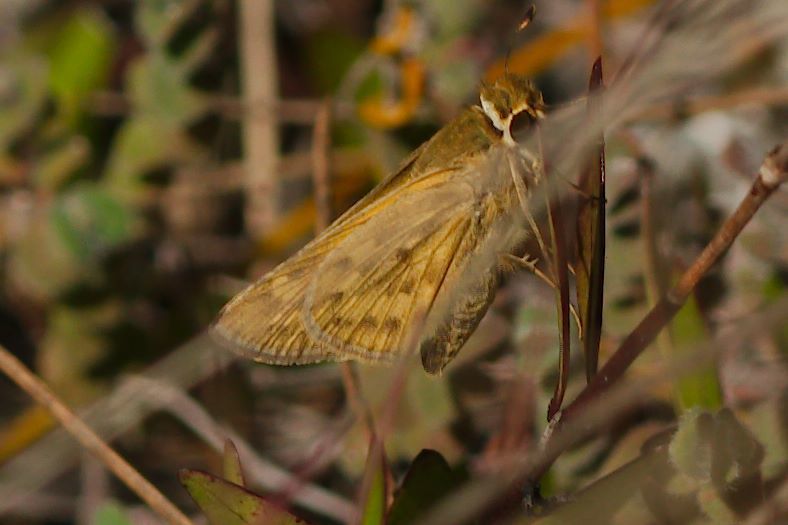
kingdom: Animalia
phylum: Arthropoda
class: Insecta
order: Lepidoptera
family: Hesperiidae
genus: Hylephila
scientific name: Hylephila phyleus
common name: Fiery skipper
